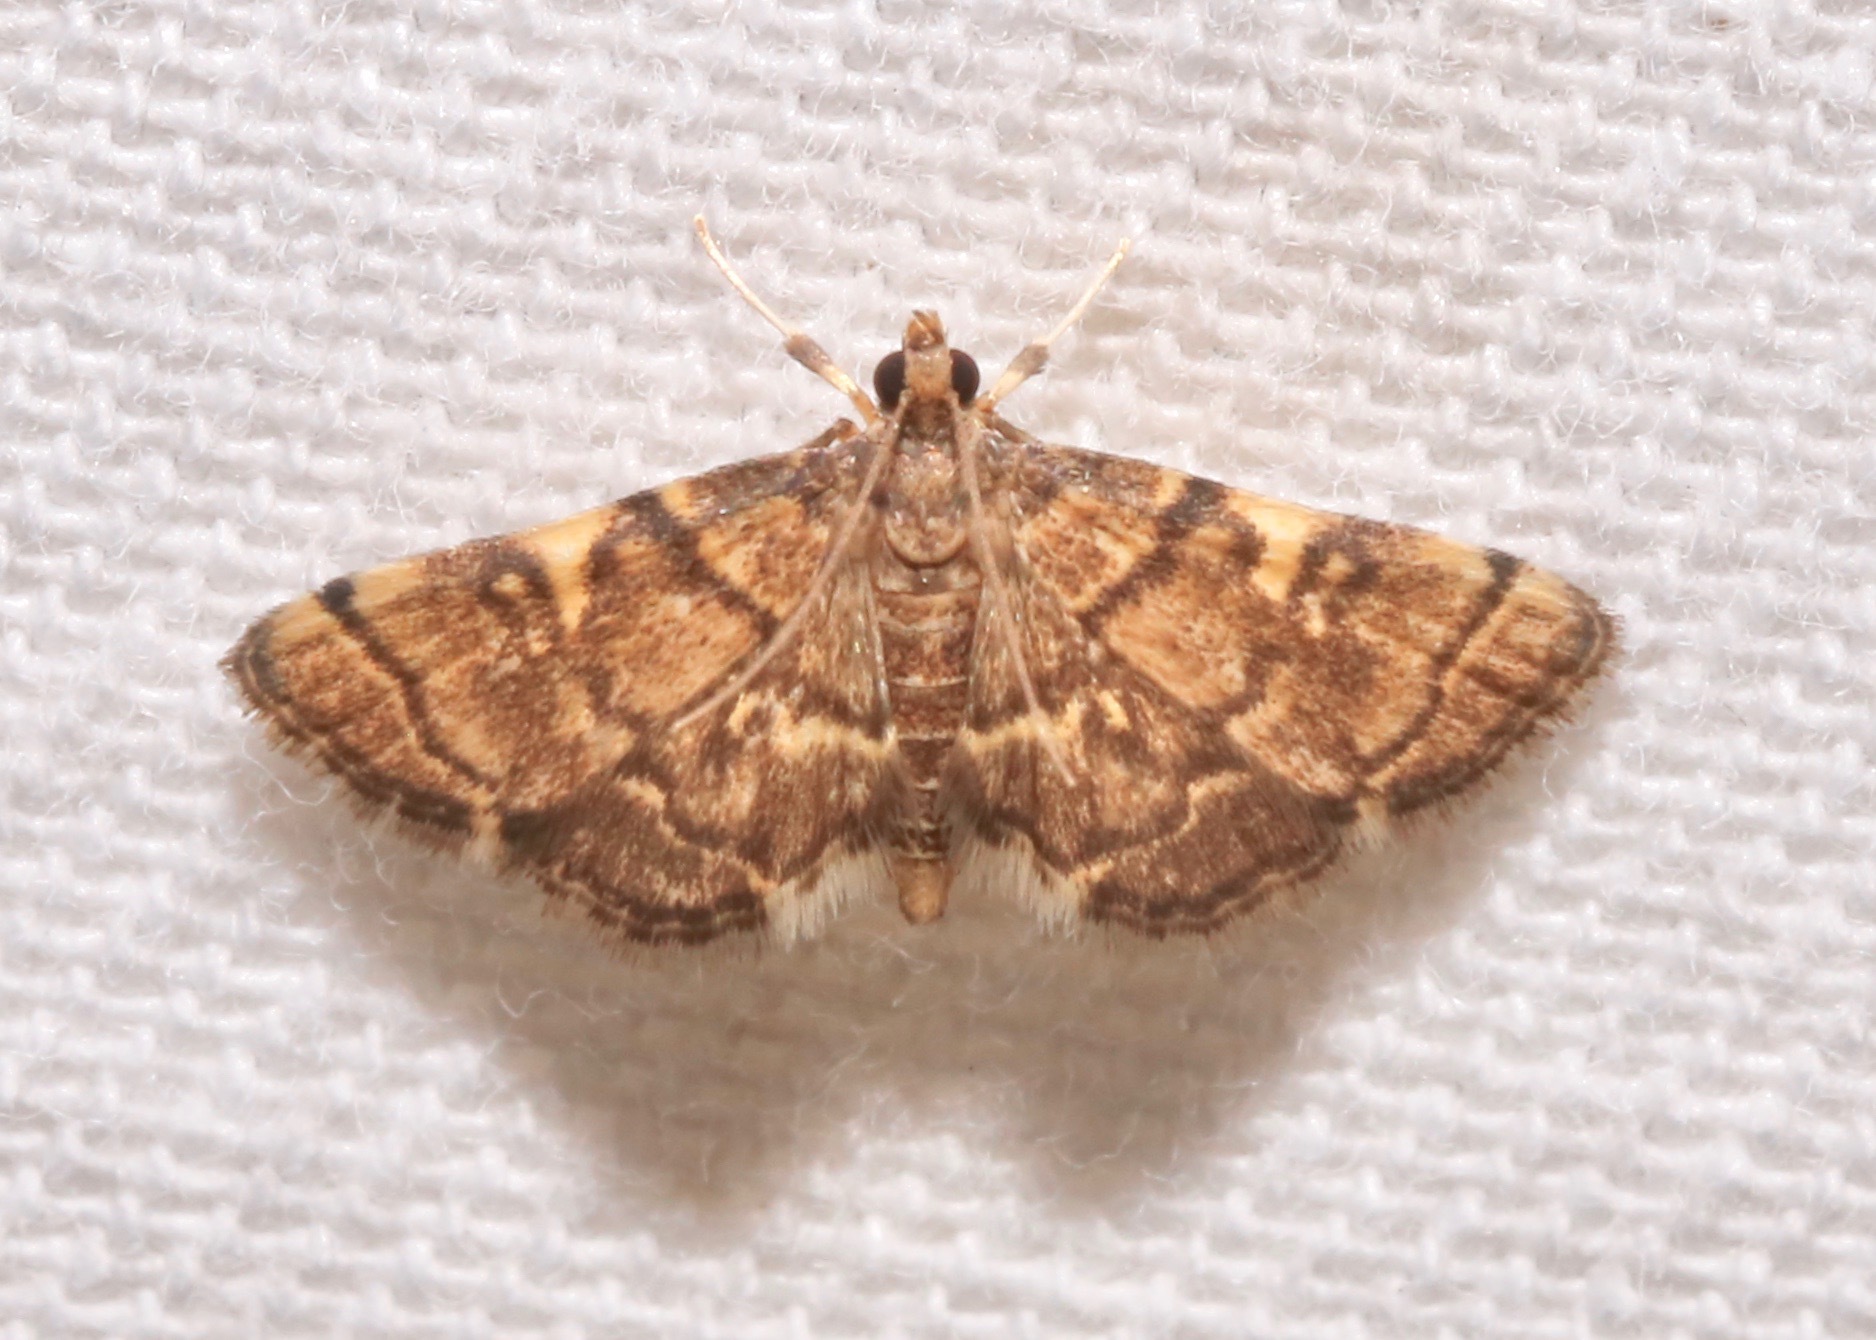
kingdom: Animalia
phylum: Arthropoda
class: Insecta
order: Lepidoptera
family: Crambidae
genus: Anageshna
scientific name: Anageshna primordialis
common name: Yellow-spotted webworm moth
